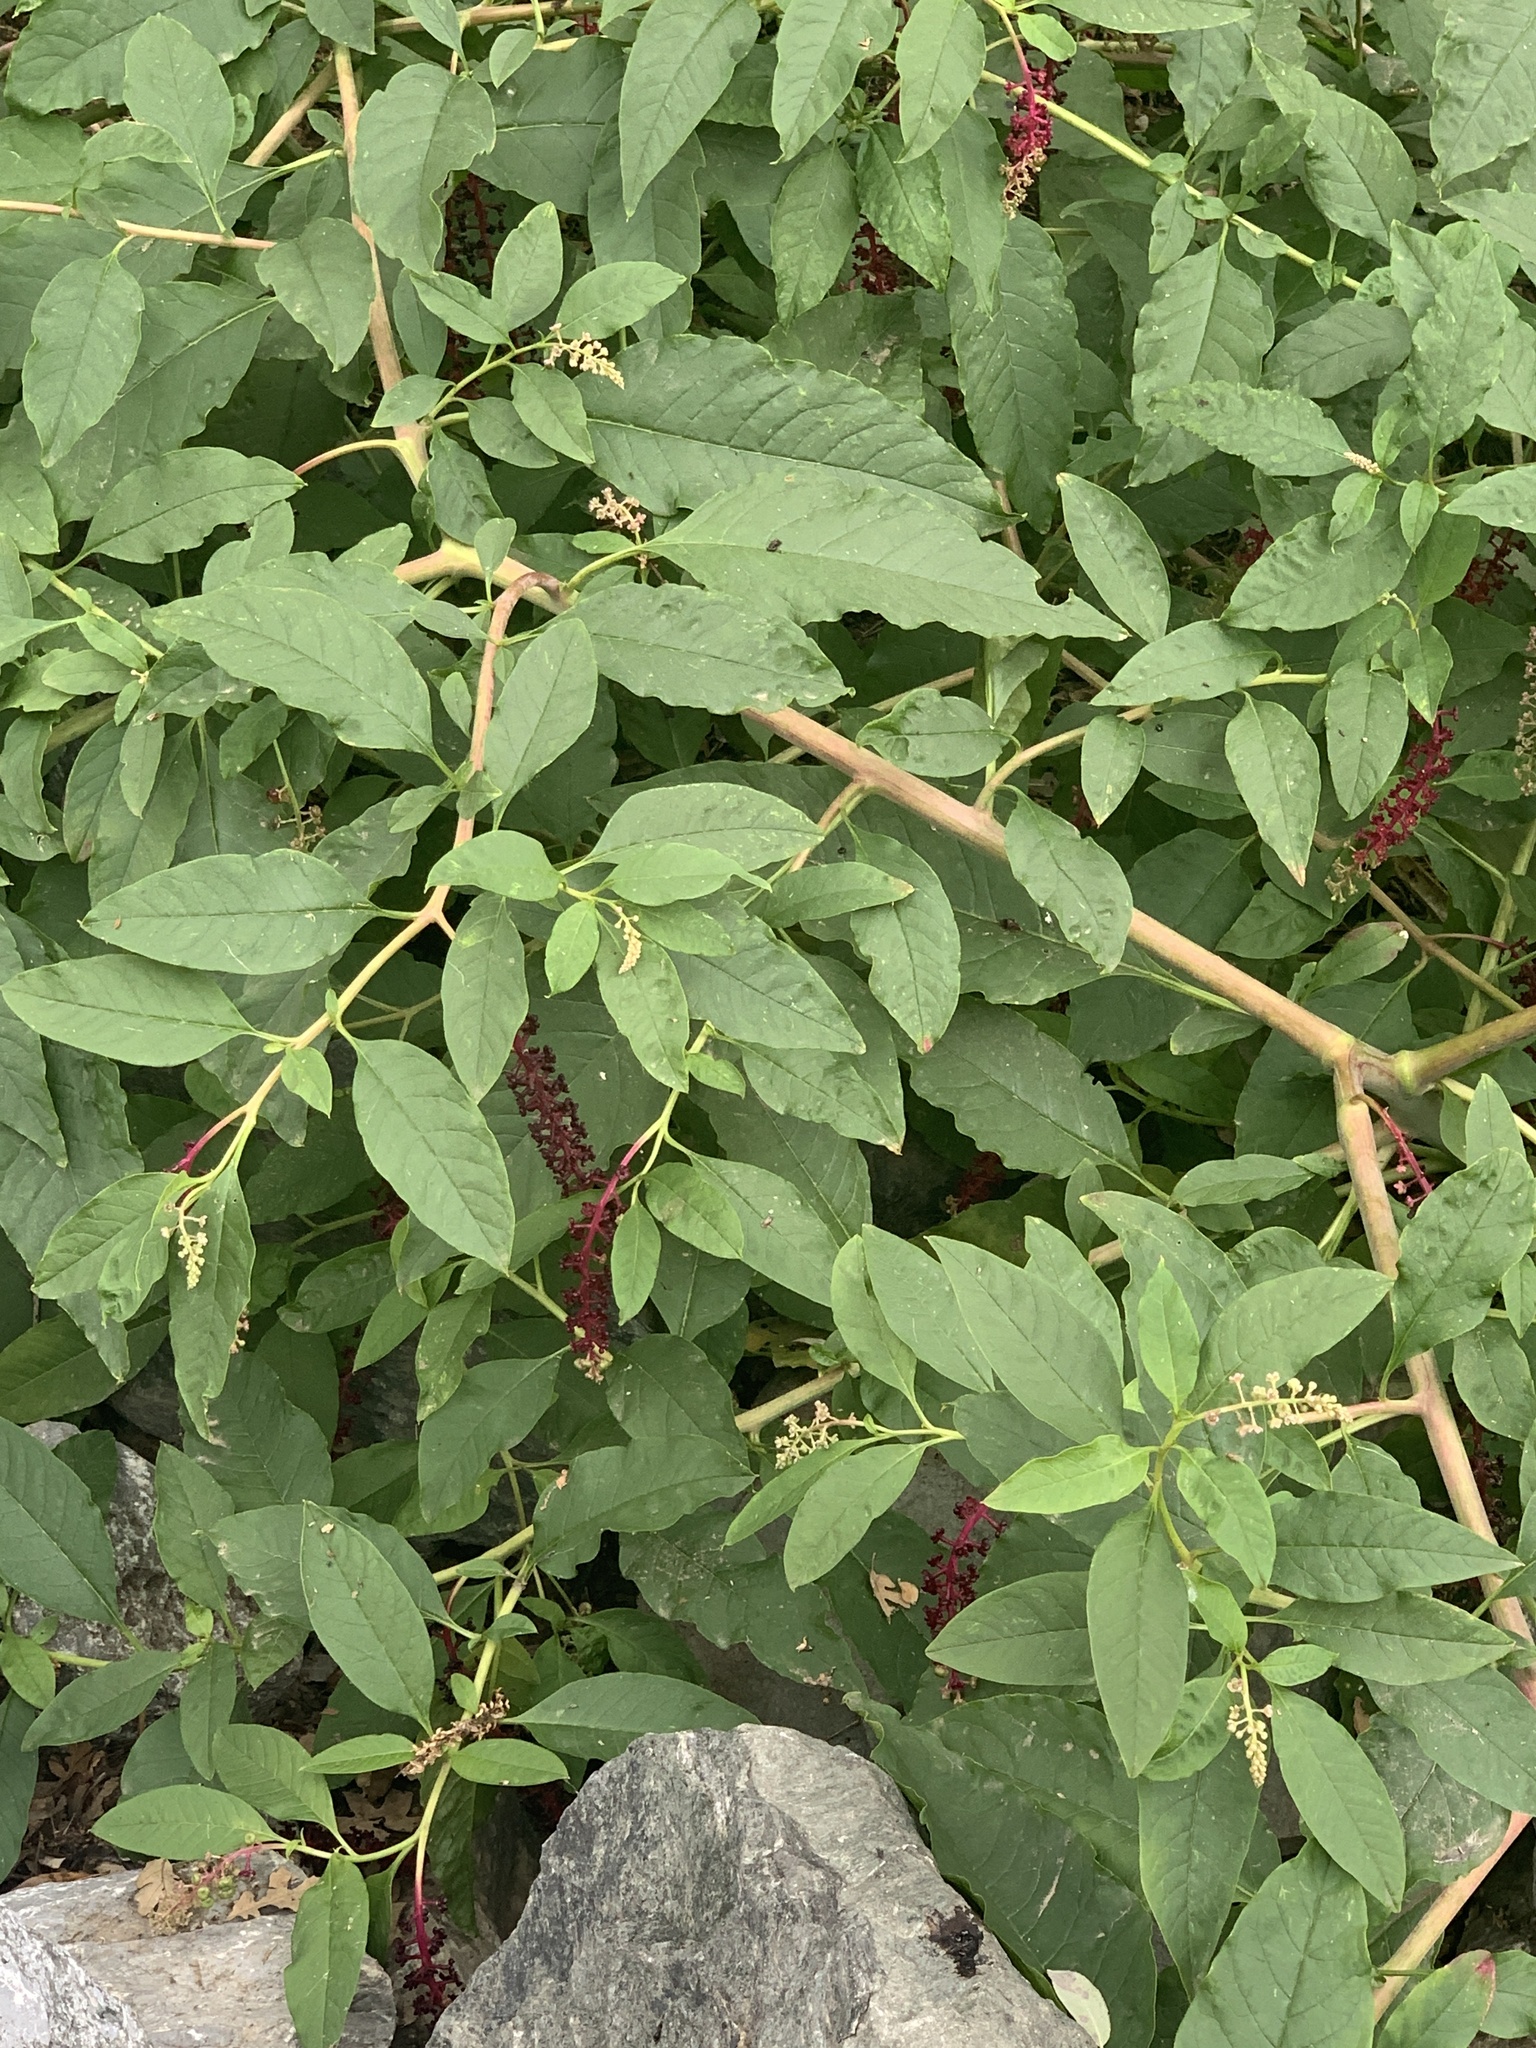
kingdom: Plantae
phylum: Tracheophyta
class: Magnoliopsida
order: Caryophyllales
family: Phytolaccaceae
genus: Phytolacca
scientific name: Phytolacca americana
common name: American pokeweed
